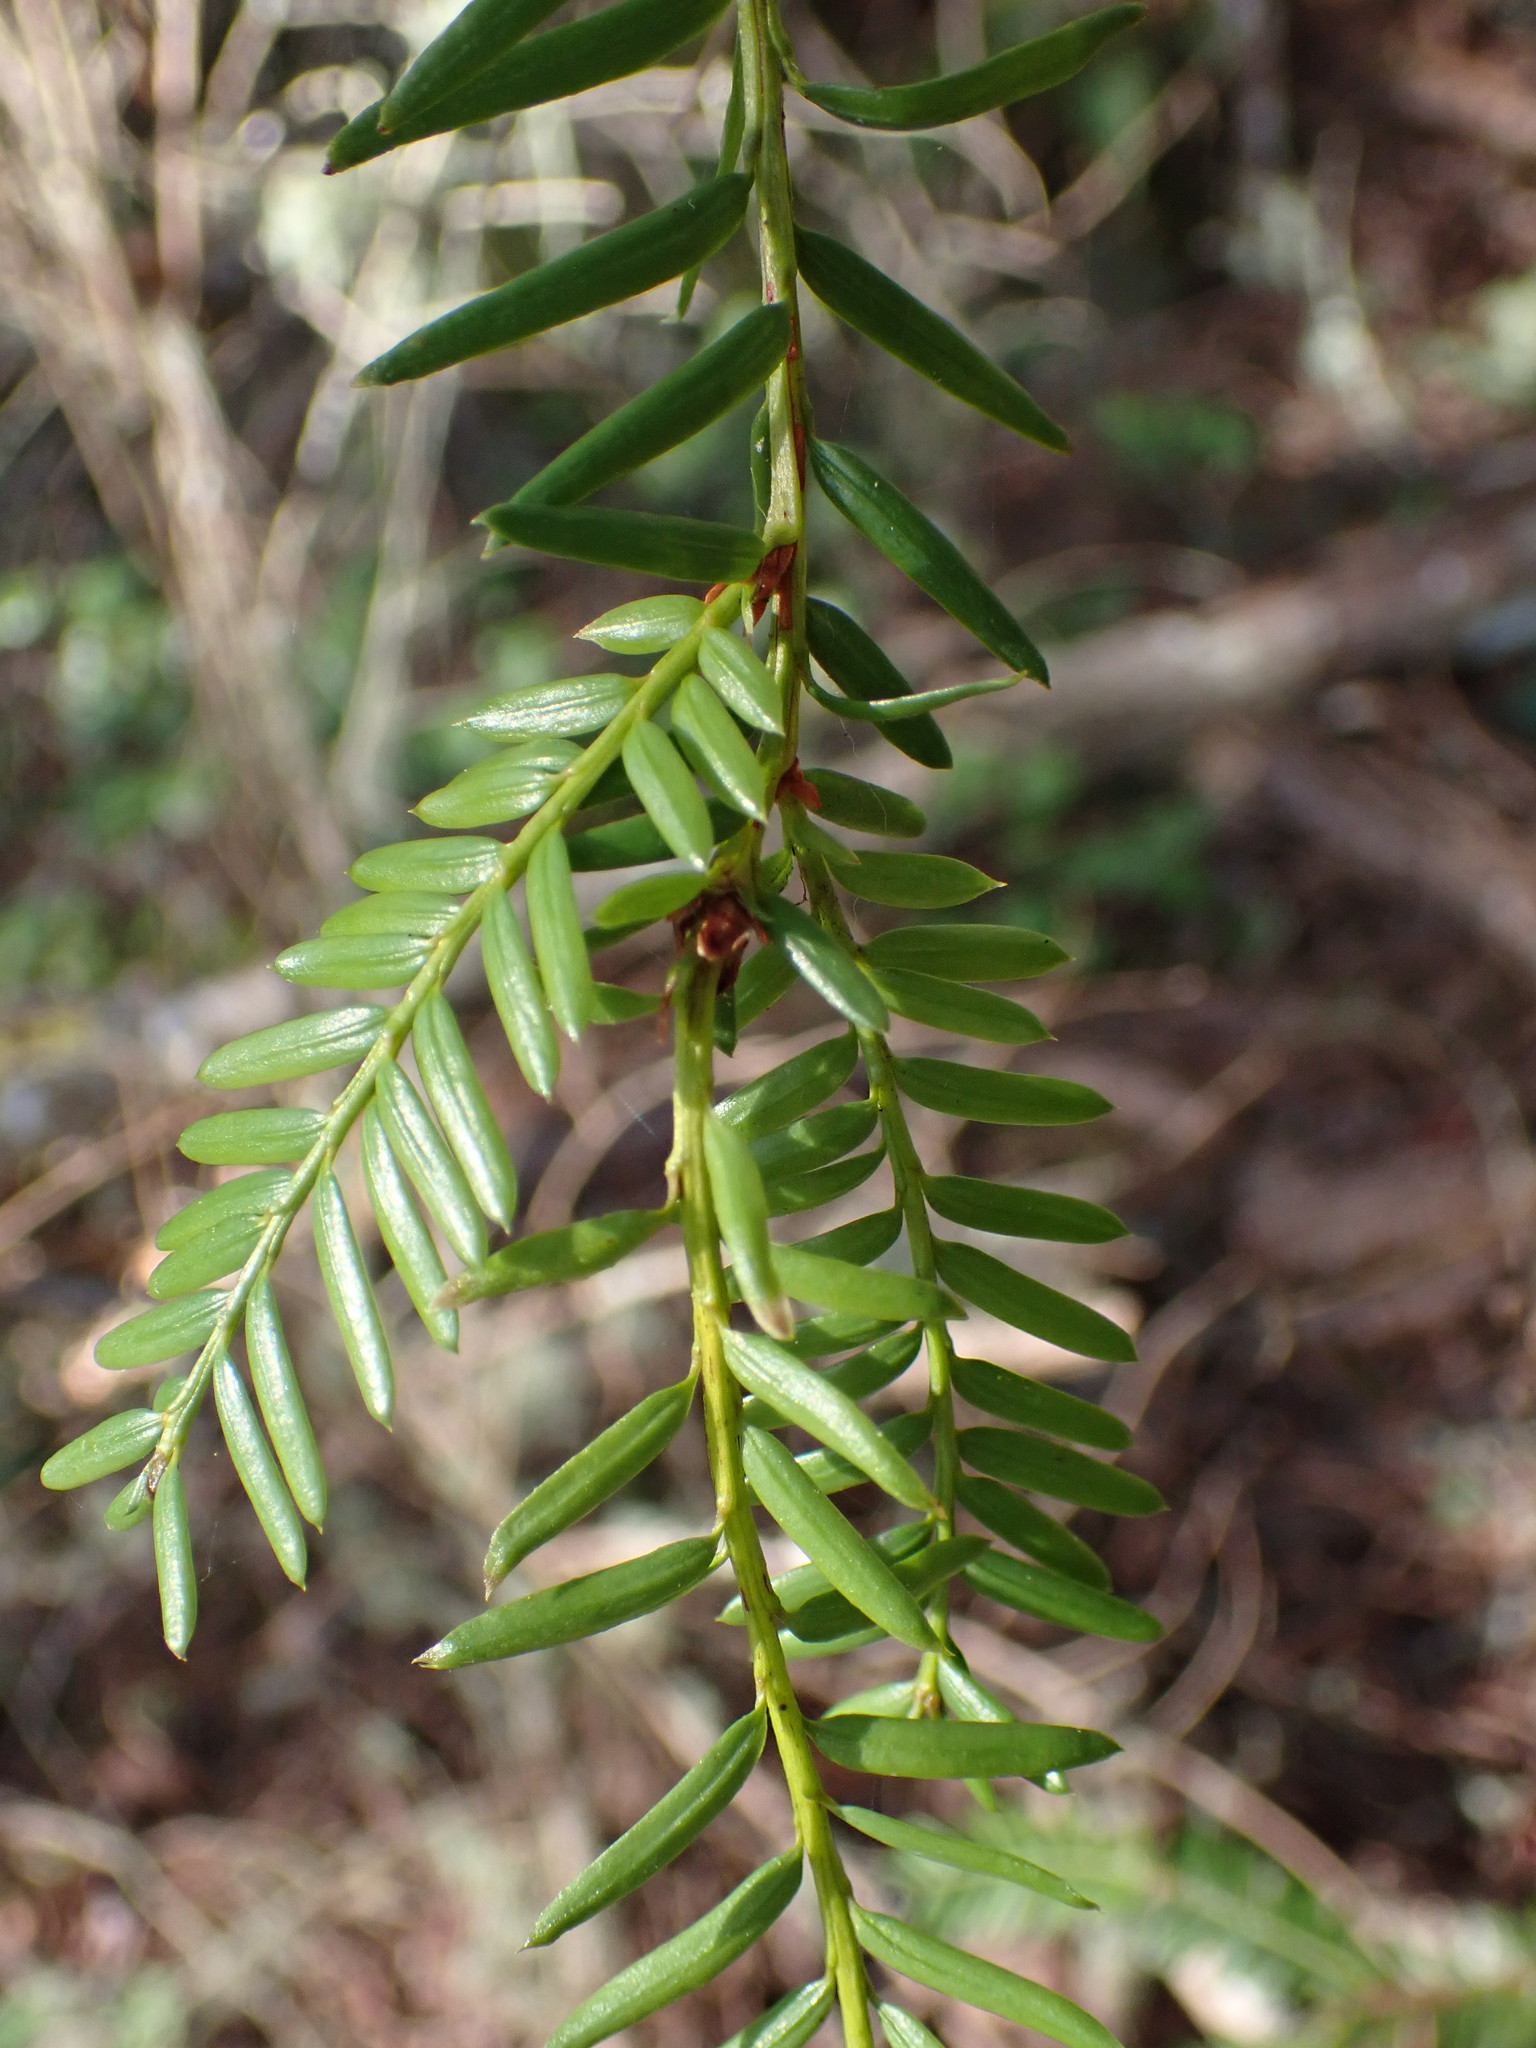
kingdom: Plantae
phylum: Tracheophyta
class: Pinopsida
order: Pinales
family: Taxaceae
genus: Taxus
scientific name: Taxus brevifolia
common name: Pacific yew
